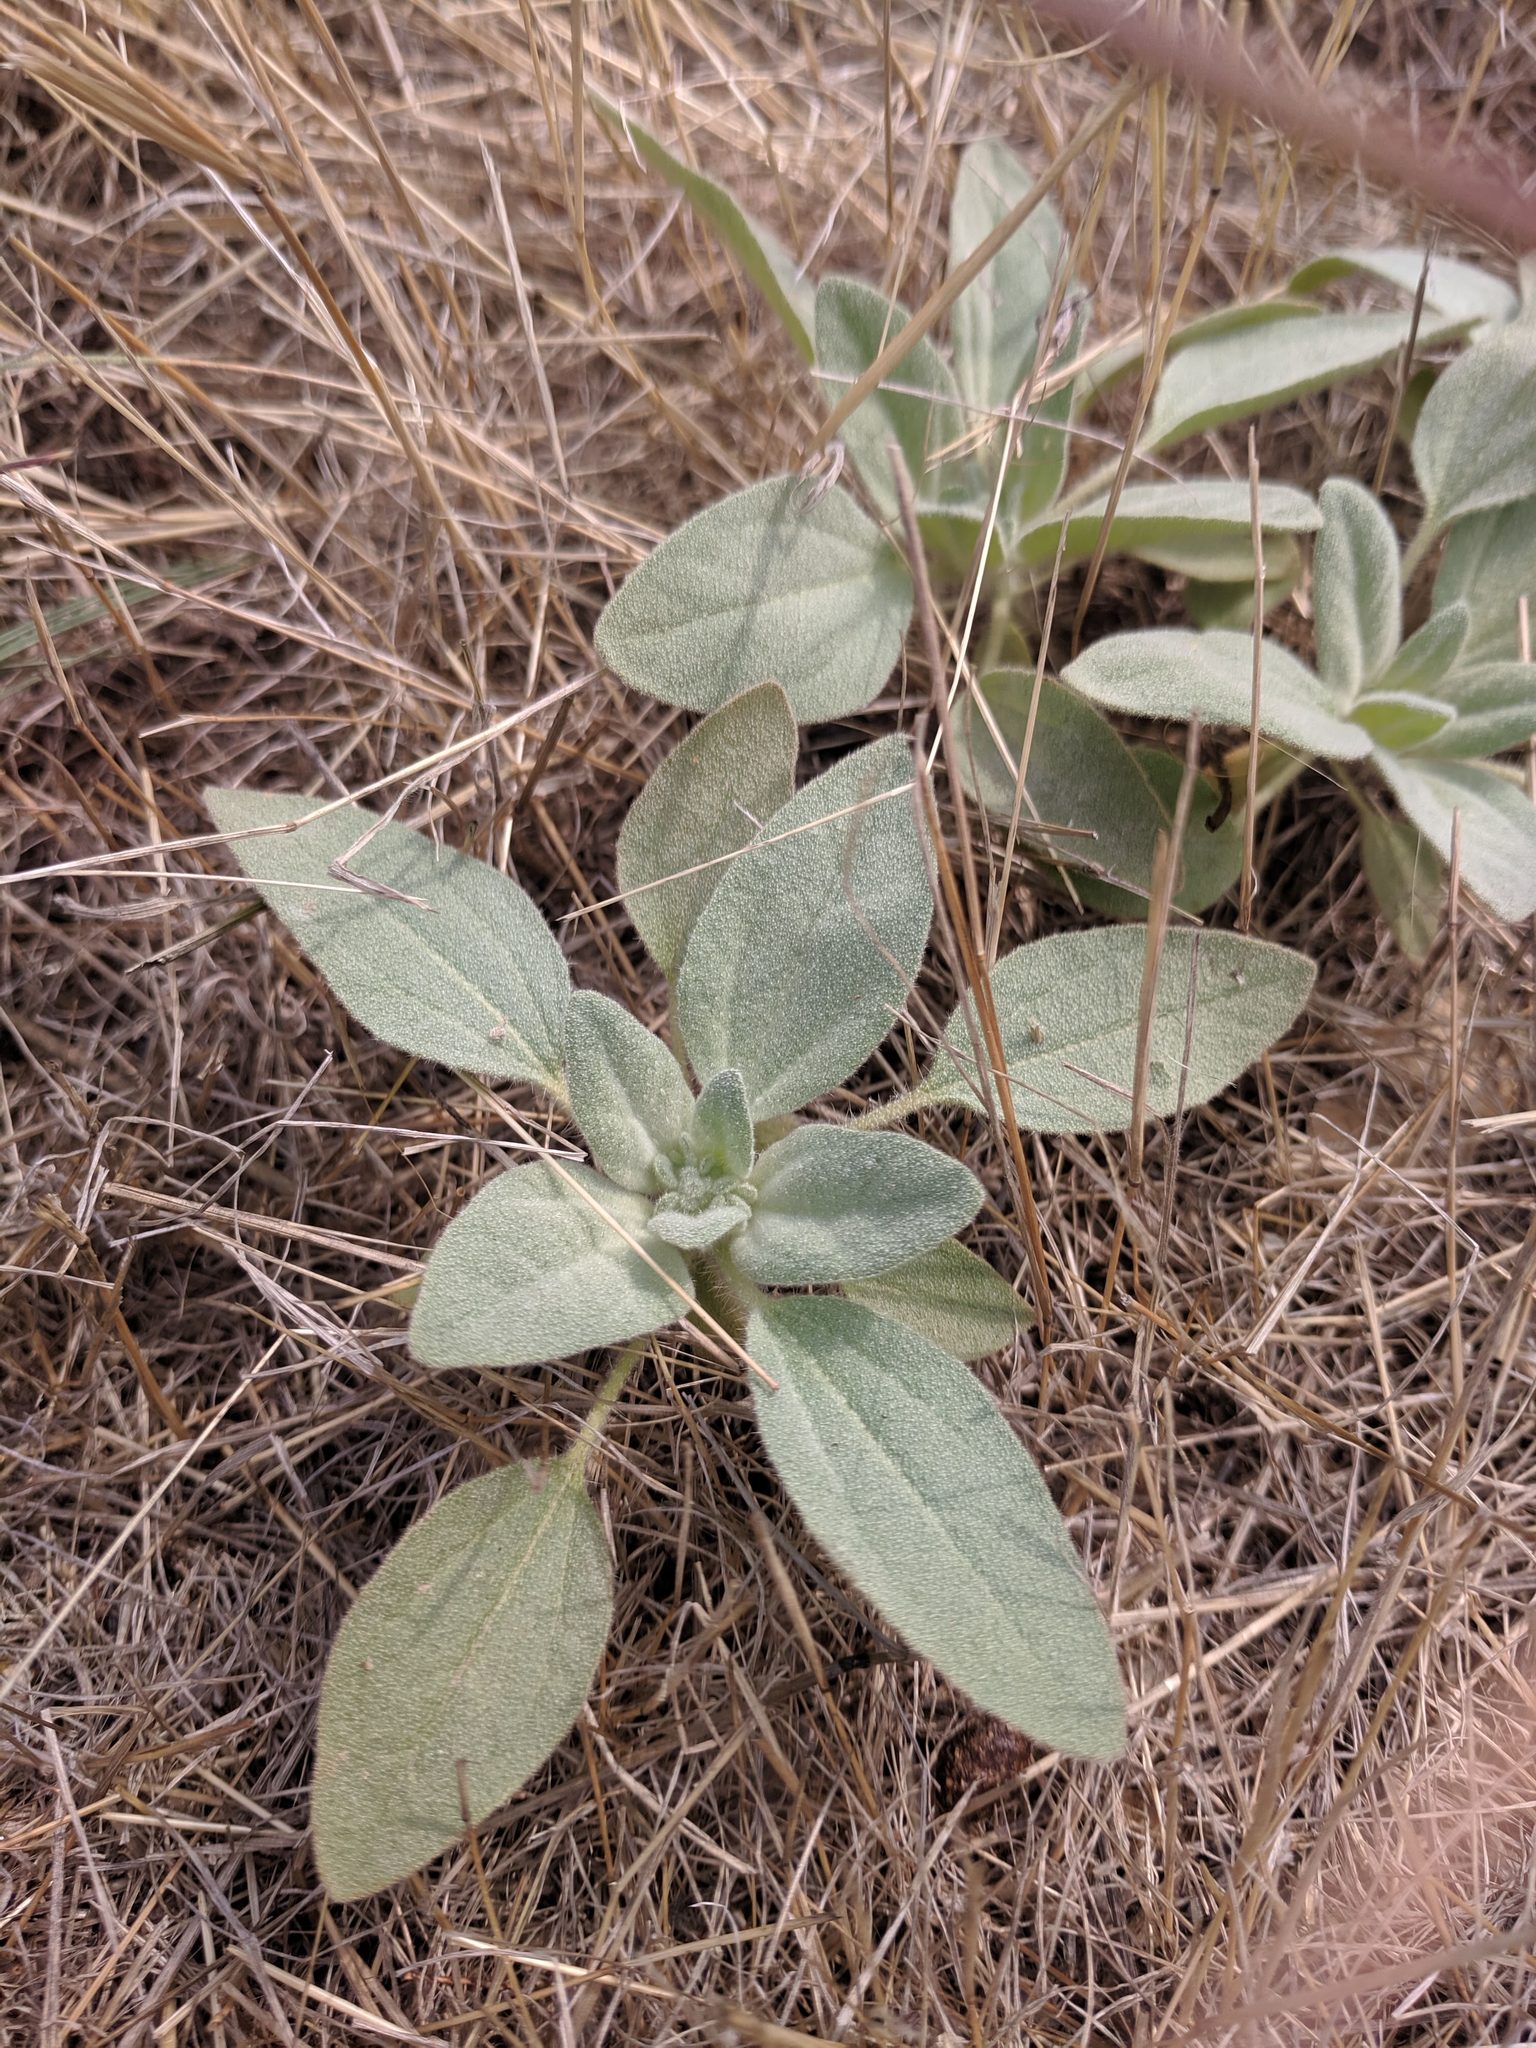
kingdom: Plantae
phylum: Tracheophyta
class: Magnoliopsida
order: Malpighiales
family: Euphorbiaceae
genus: Croton
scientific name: Croton setiger
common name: Dove weed
